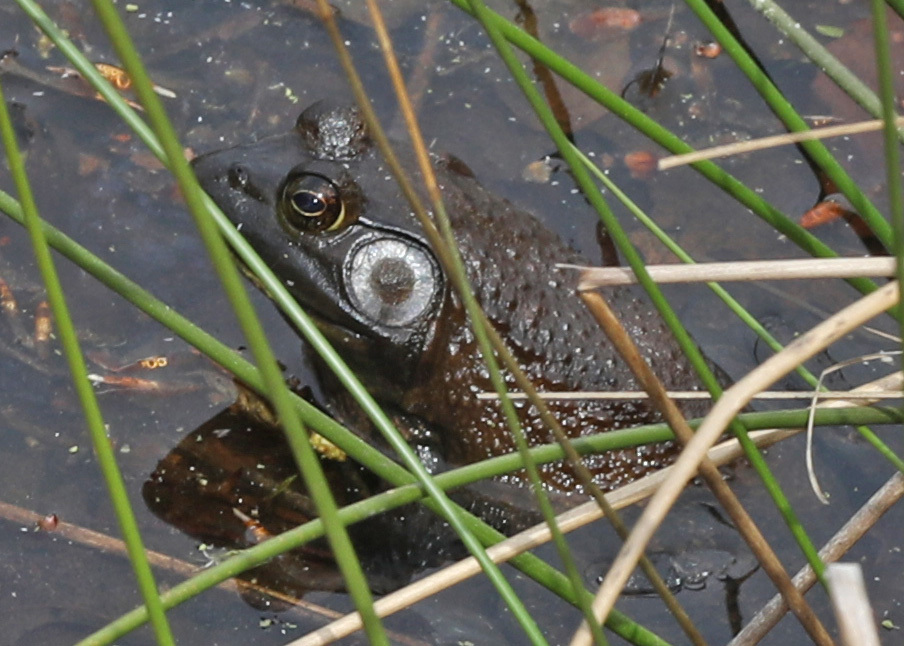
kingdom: Animalia
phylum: Chordata
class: Amphibia
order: Anura
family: Ranidae
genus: Lithobates
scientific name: Lithobates catesbeianus
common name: American bullfrog
